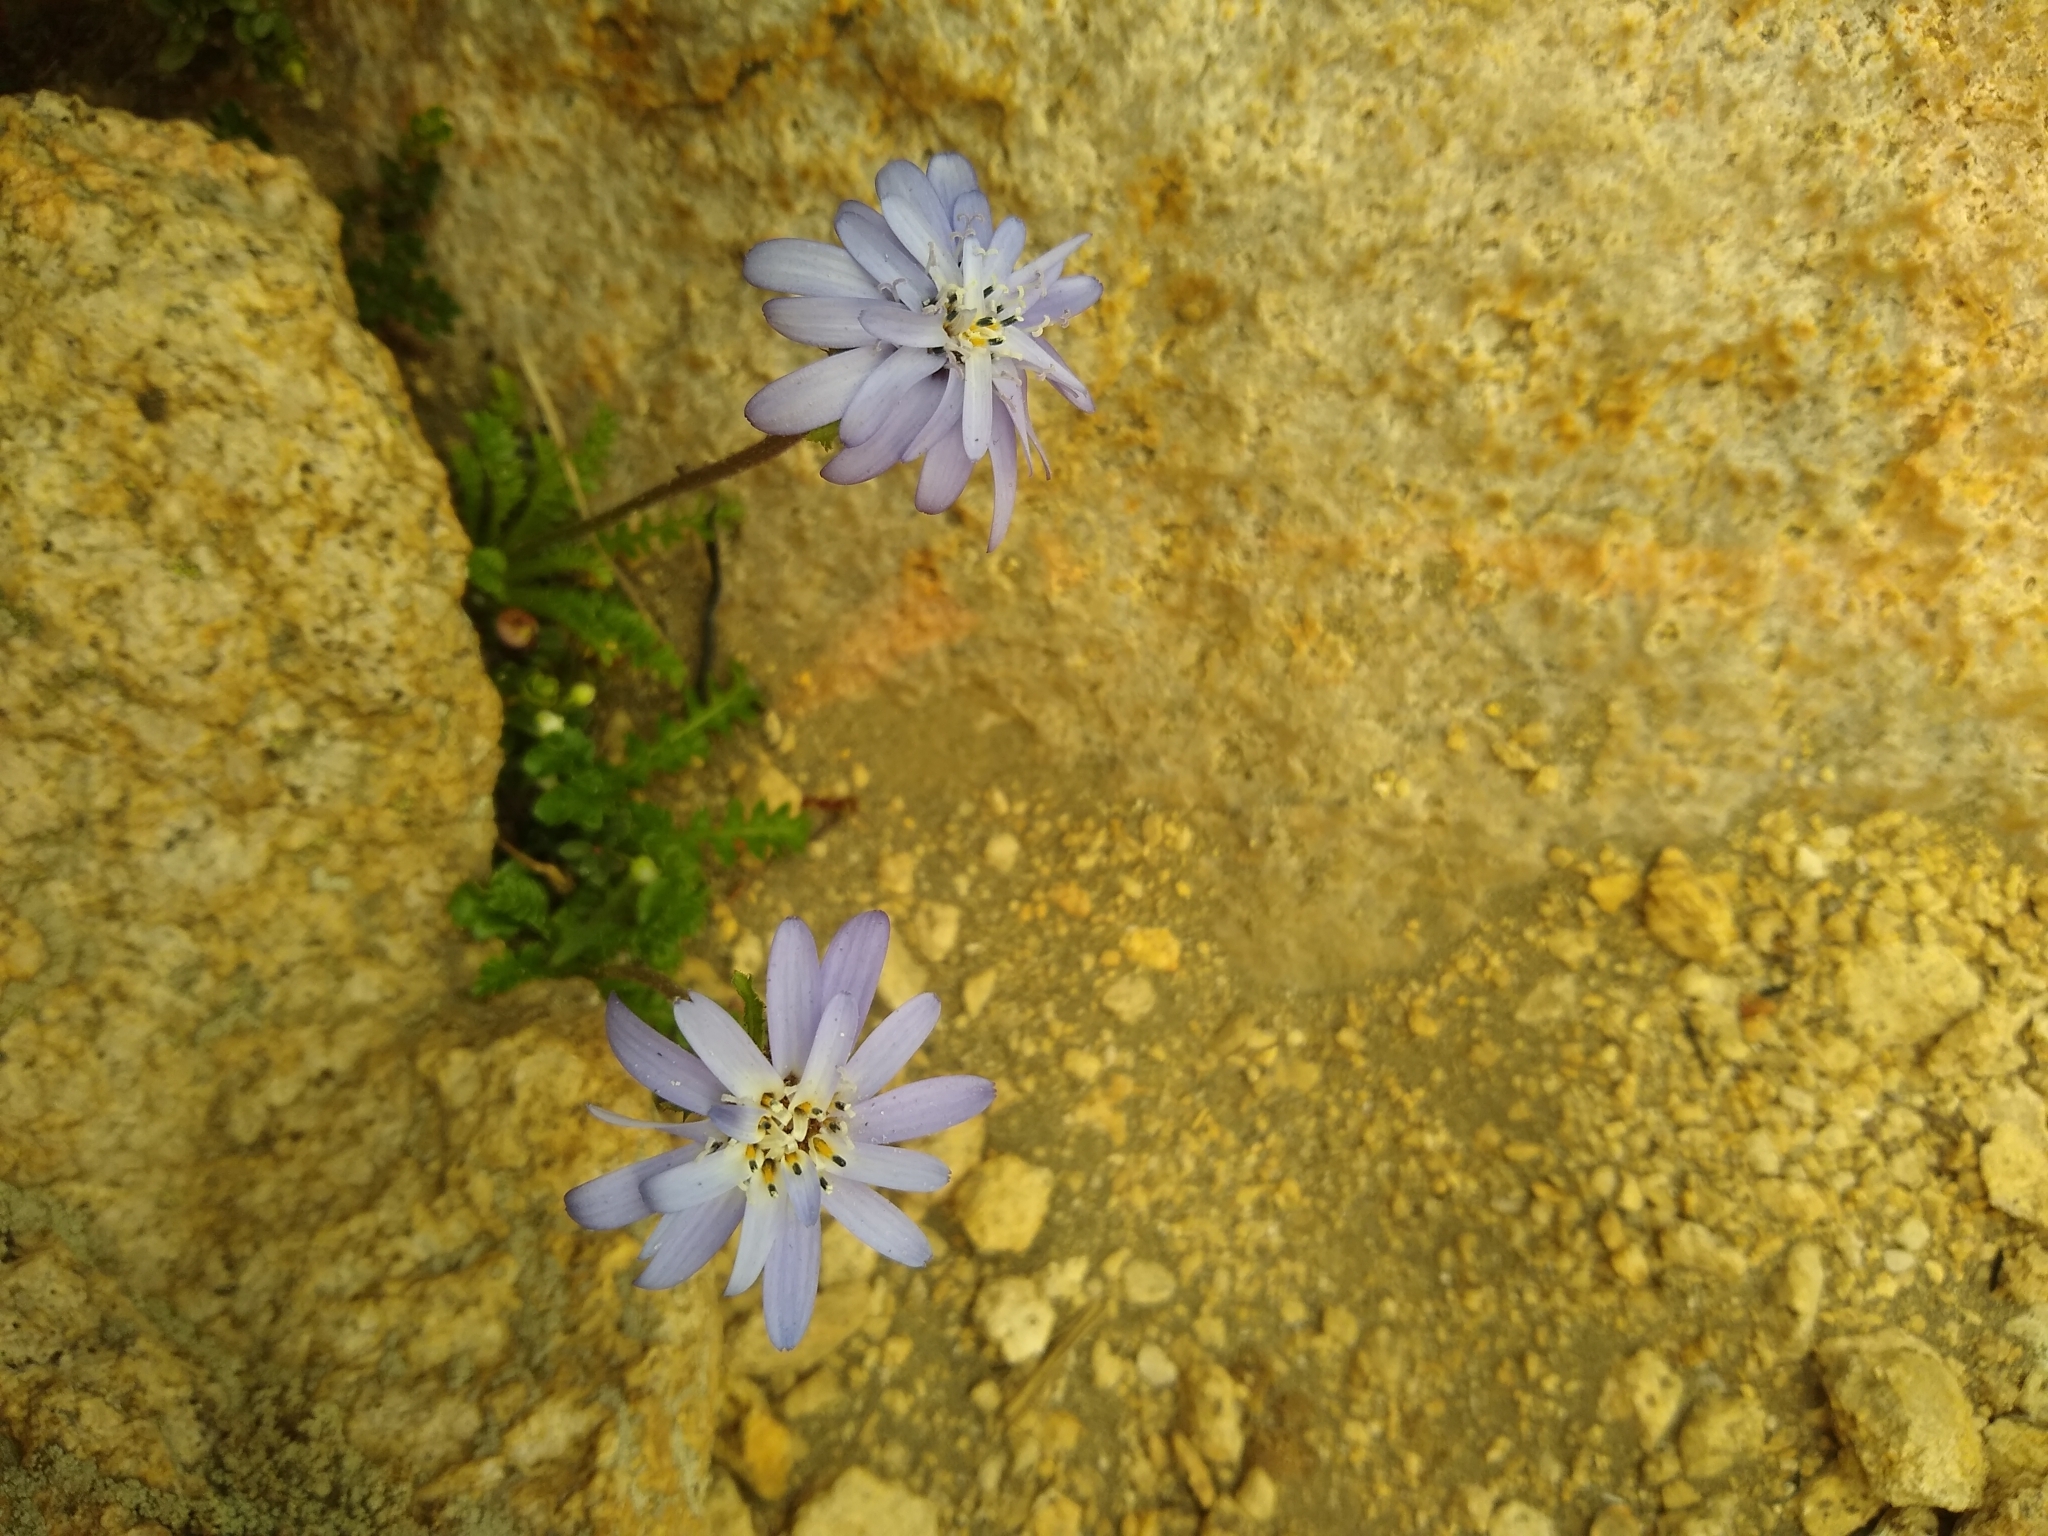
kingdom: Plantae
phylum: Tracheophyta
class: Magnoliopsida
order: Asterales
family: Asteraceae
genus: Perezia
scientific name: Perezia pedicularidifolia
